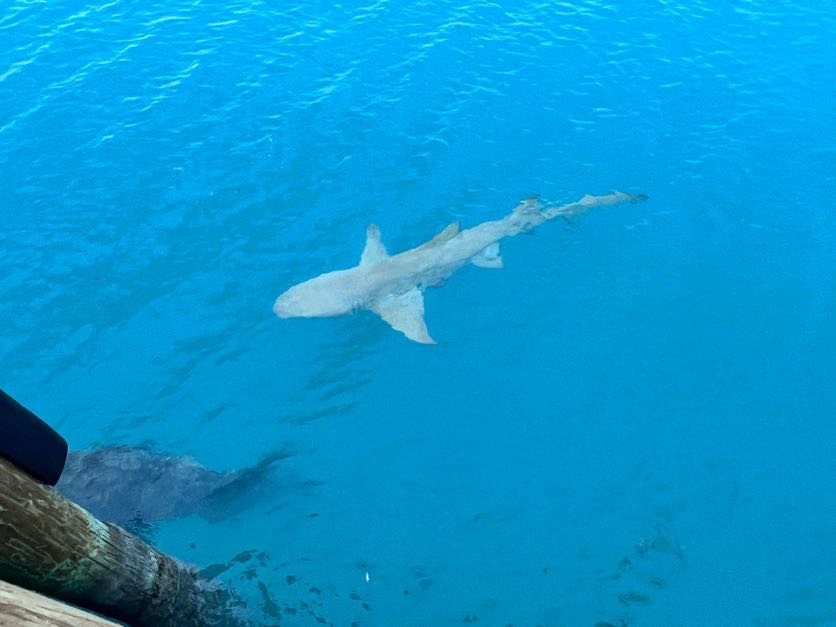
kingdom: Animalia
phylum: Chordata
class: Elasmobranchii
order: Carcharhiniformes
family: Carcharhinidae
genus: Negaprion
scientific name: Negaprion brevirostris
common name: Lemon shark
